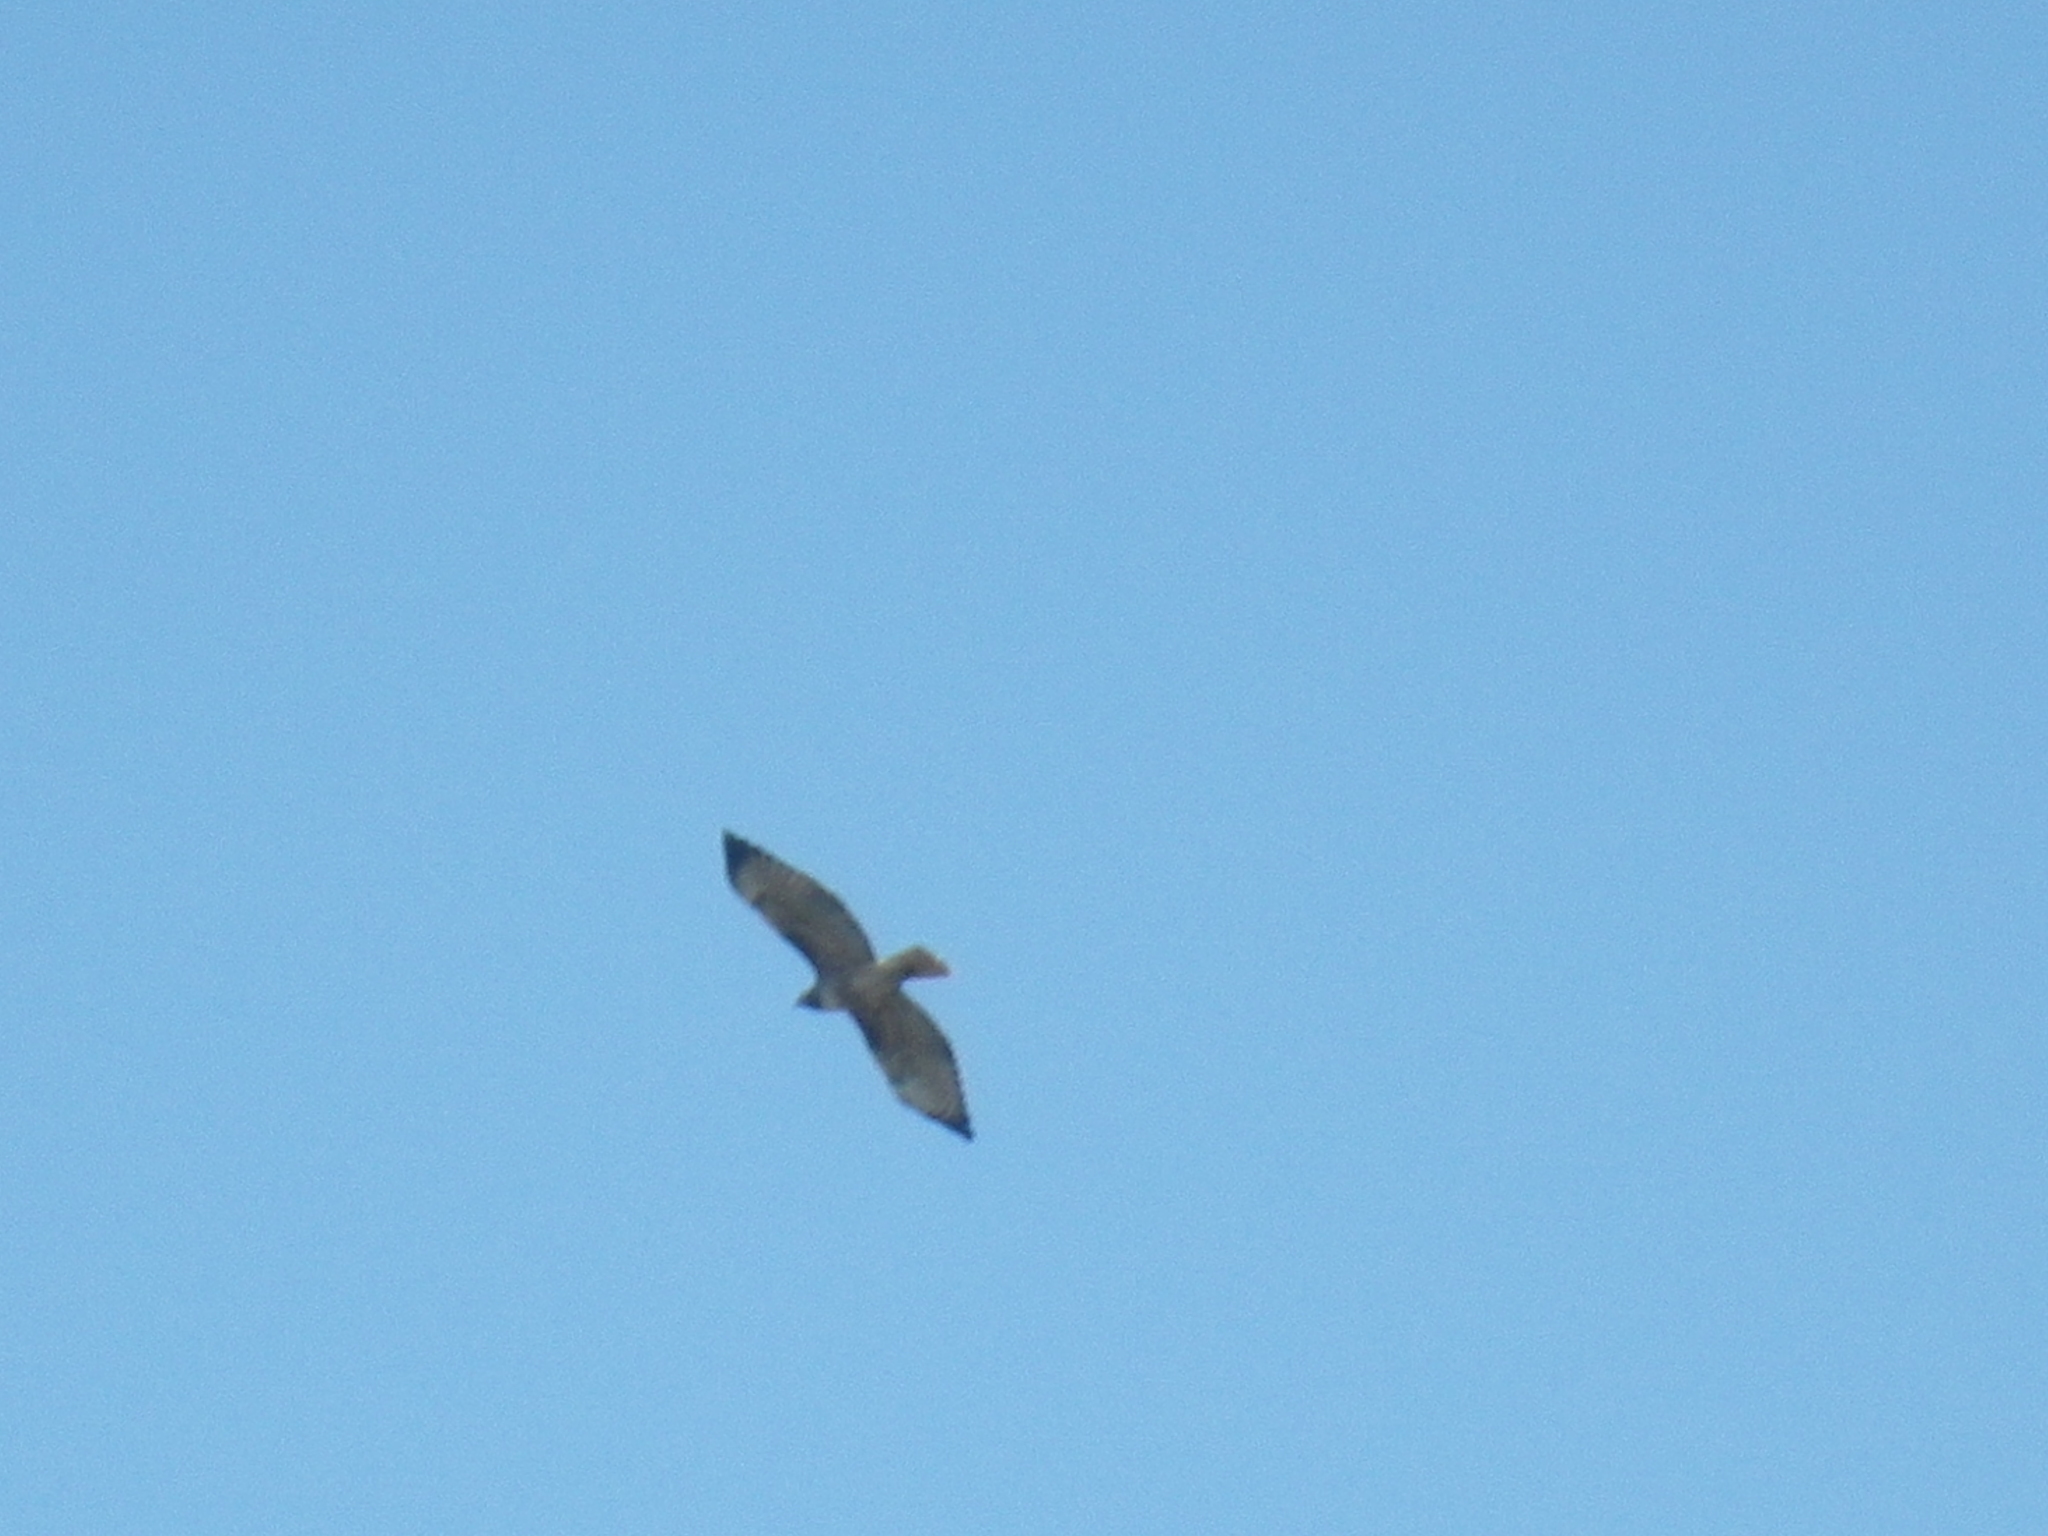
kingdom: Animalia
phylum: Chordata
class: Aves
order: Accipitriformes
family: Accipitridae
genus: Buteo
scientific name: Buteo jamaicensis
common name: Red-tailed hawk
